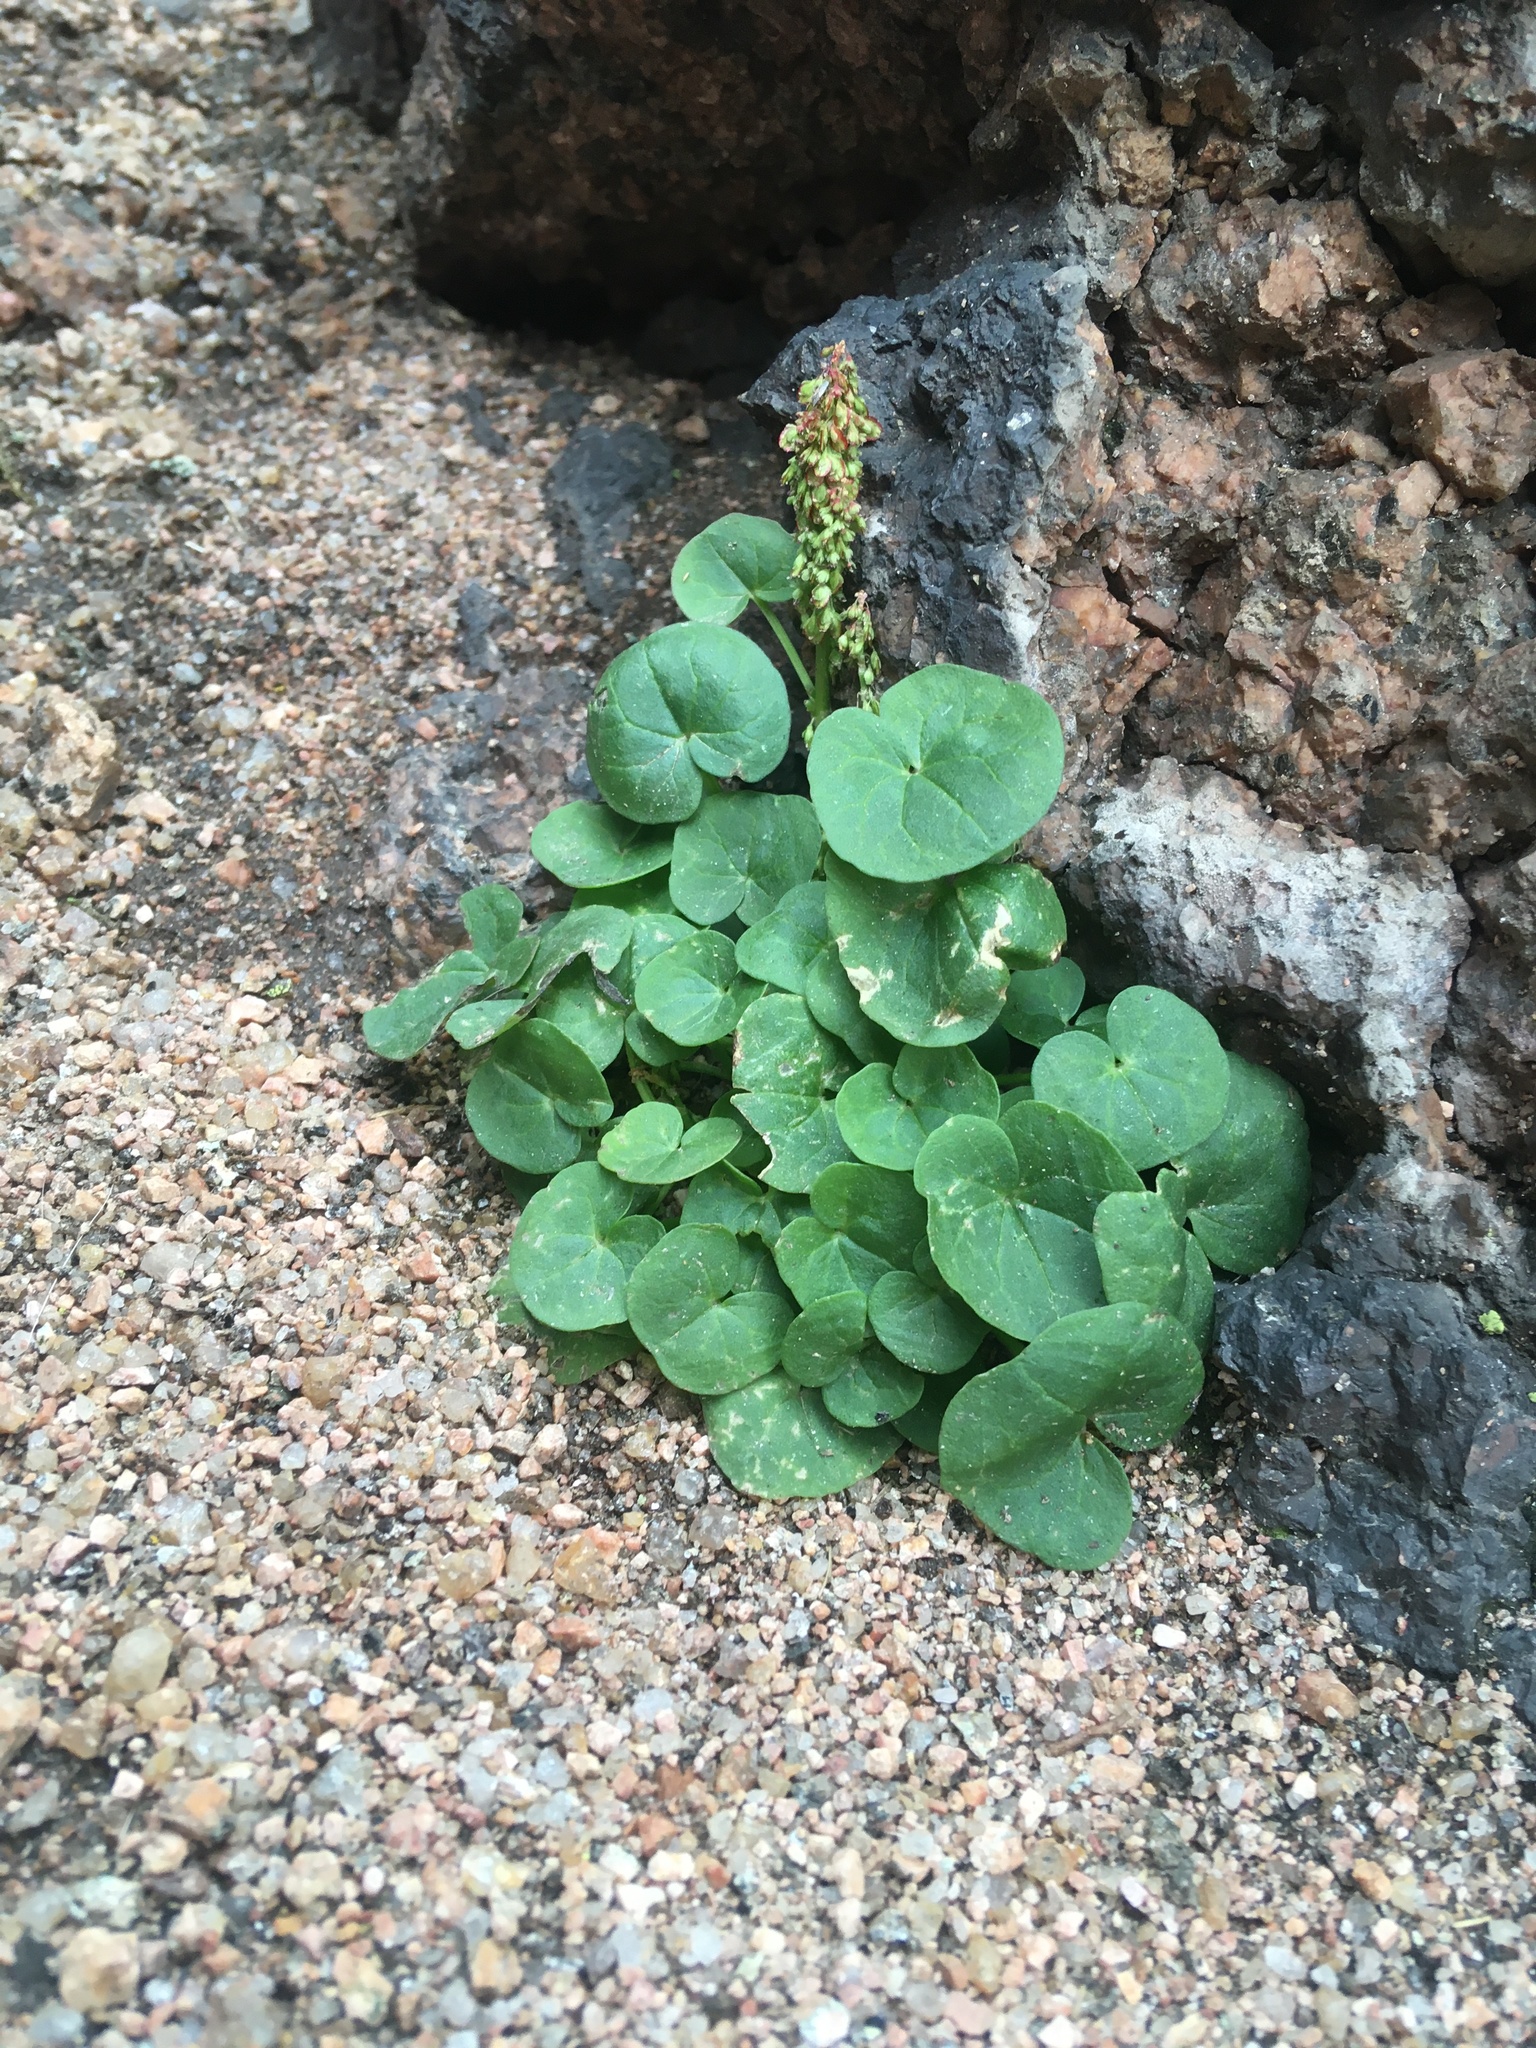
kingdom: Plantae
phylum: Tracheophyta
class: Magnoliopsida
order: Caryophyllales
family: Polygonaceae
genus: Oxyria
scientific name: Oxyria digyna
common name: Alpine mountain-sorrel
